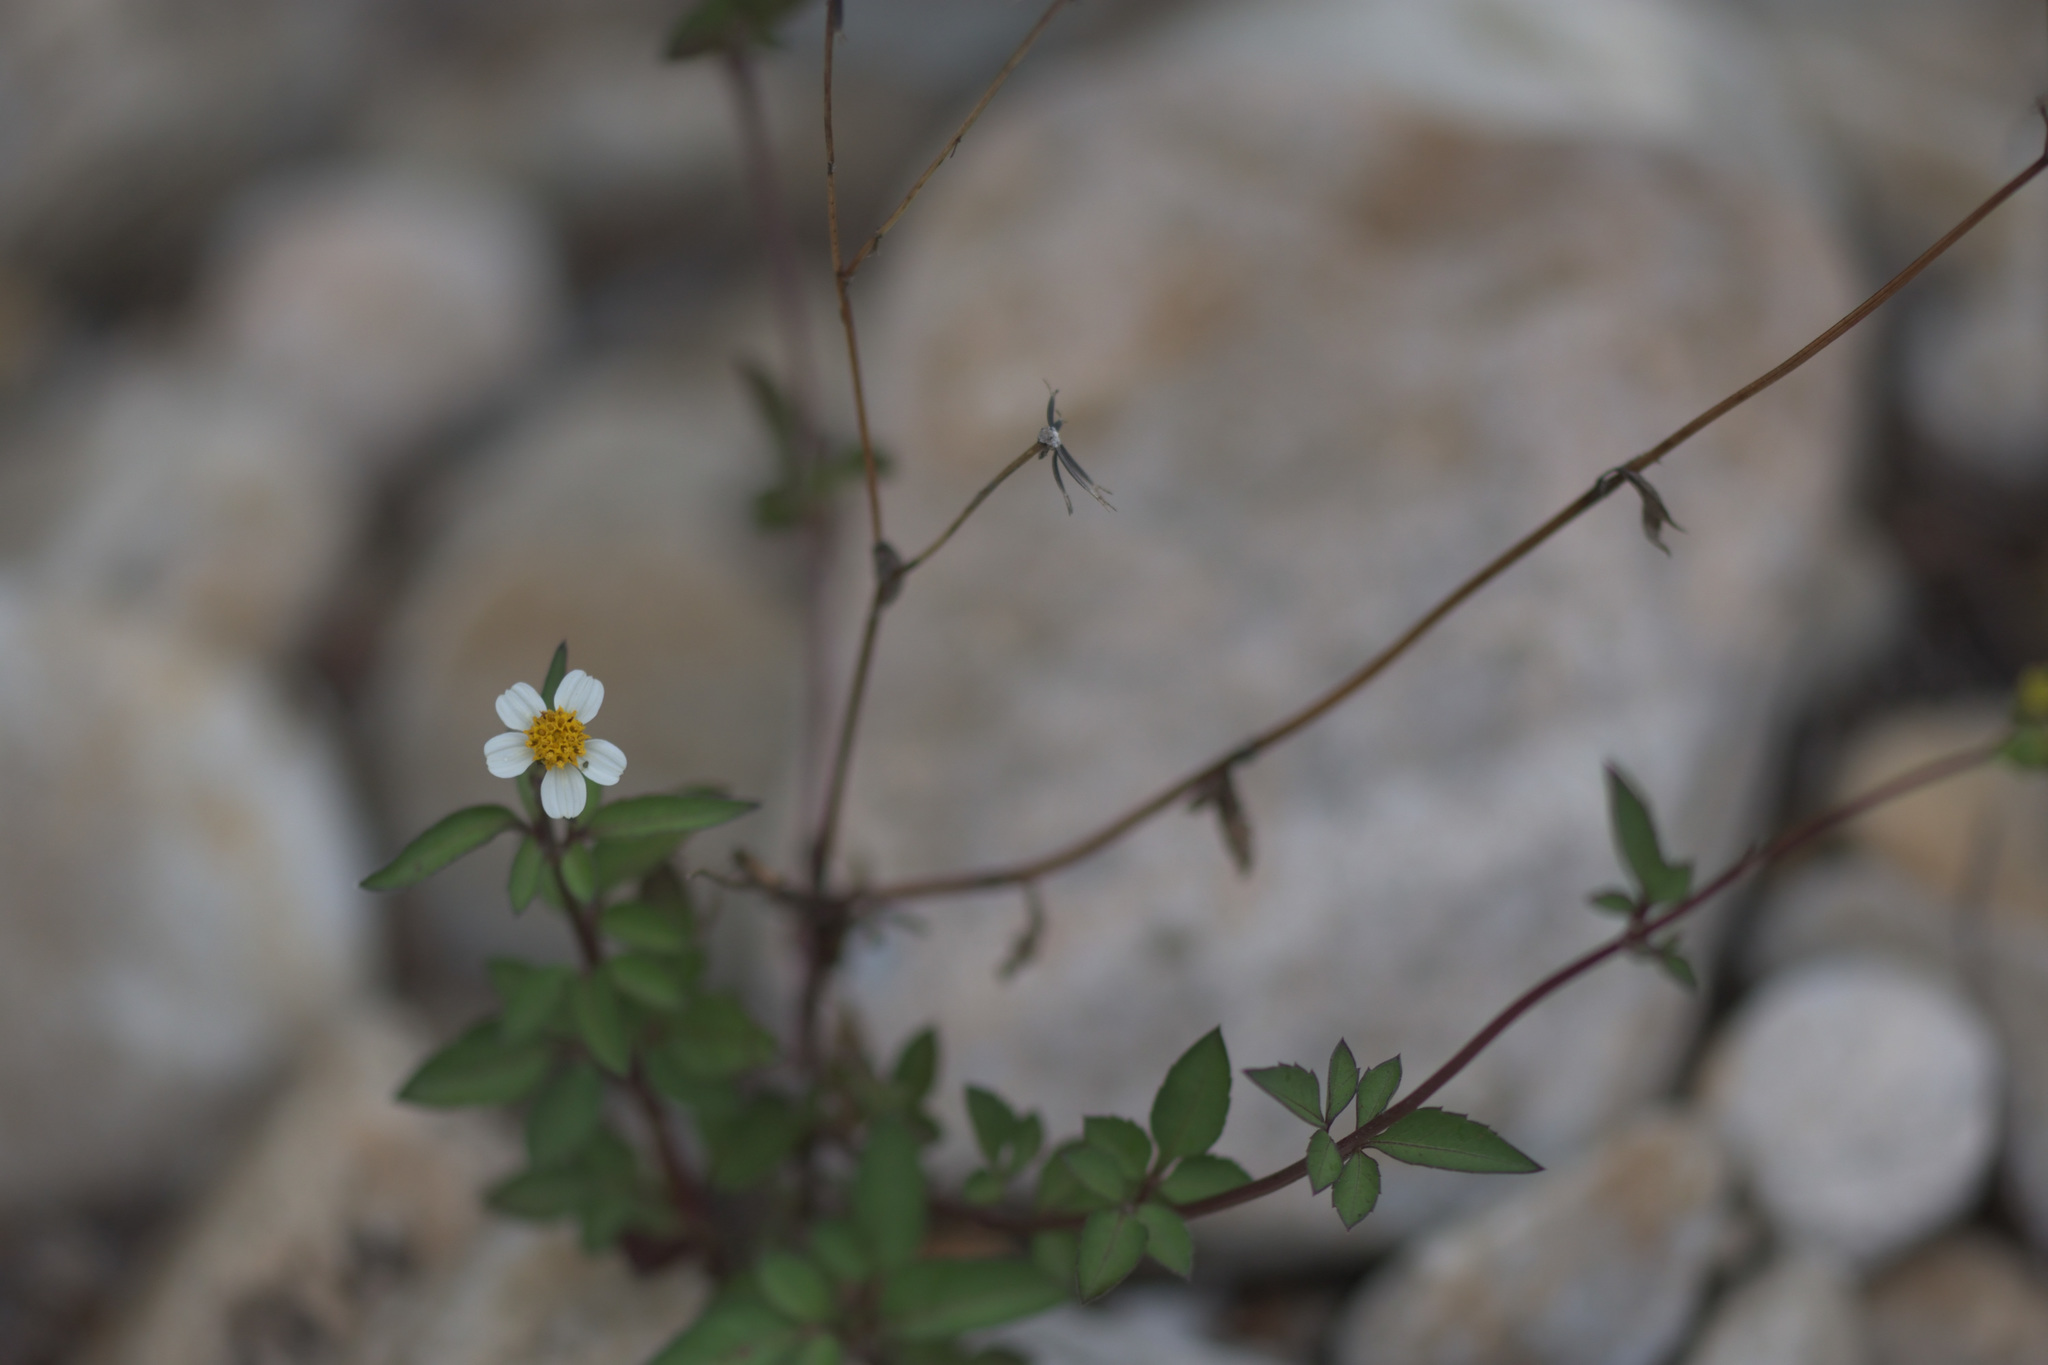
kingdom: Plantae
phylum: Tracheophyta
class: Magnoliopsida
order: Asterales
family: Asteraceae
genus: Bidens
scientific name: Bidens pilosa
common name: Black-jack
